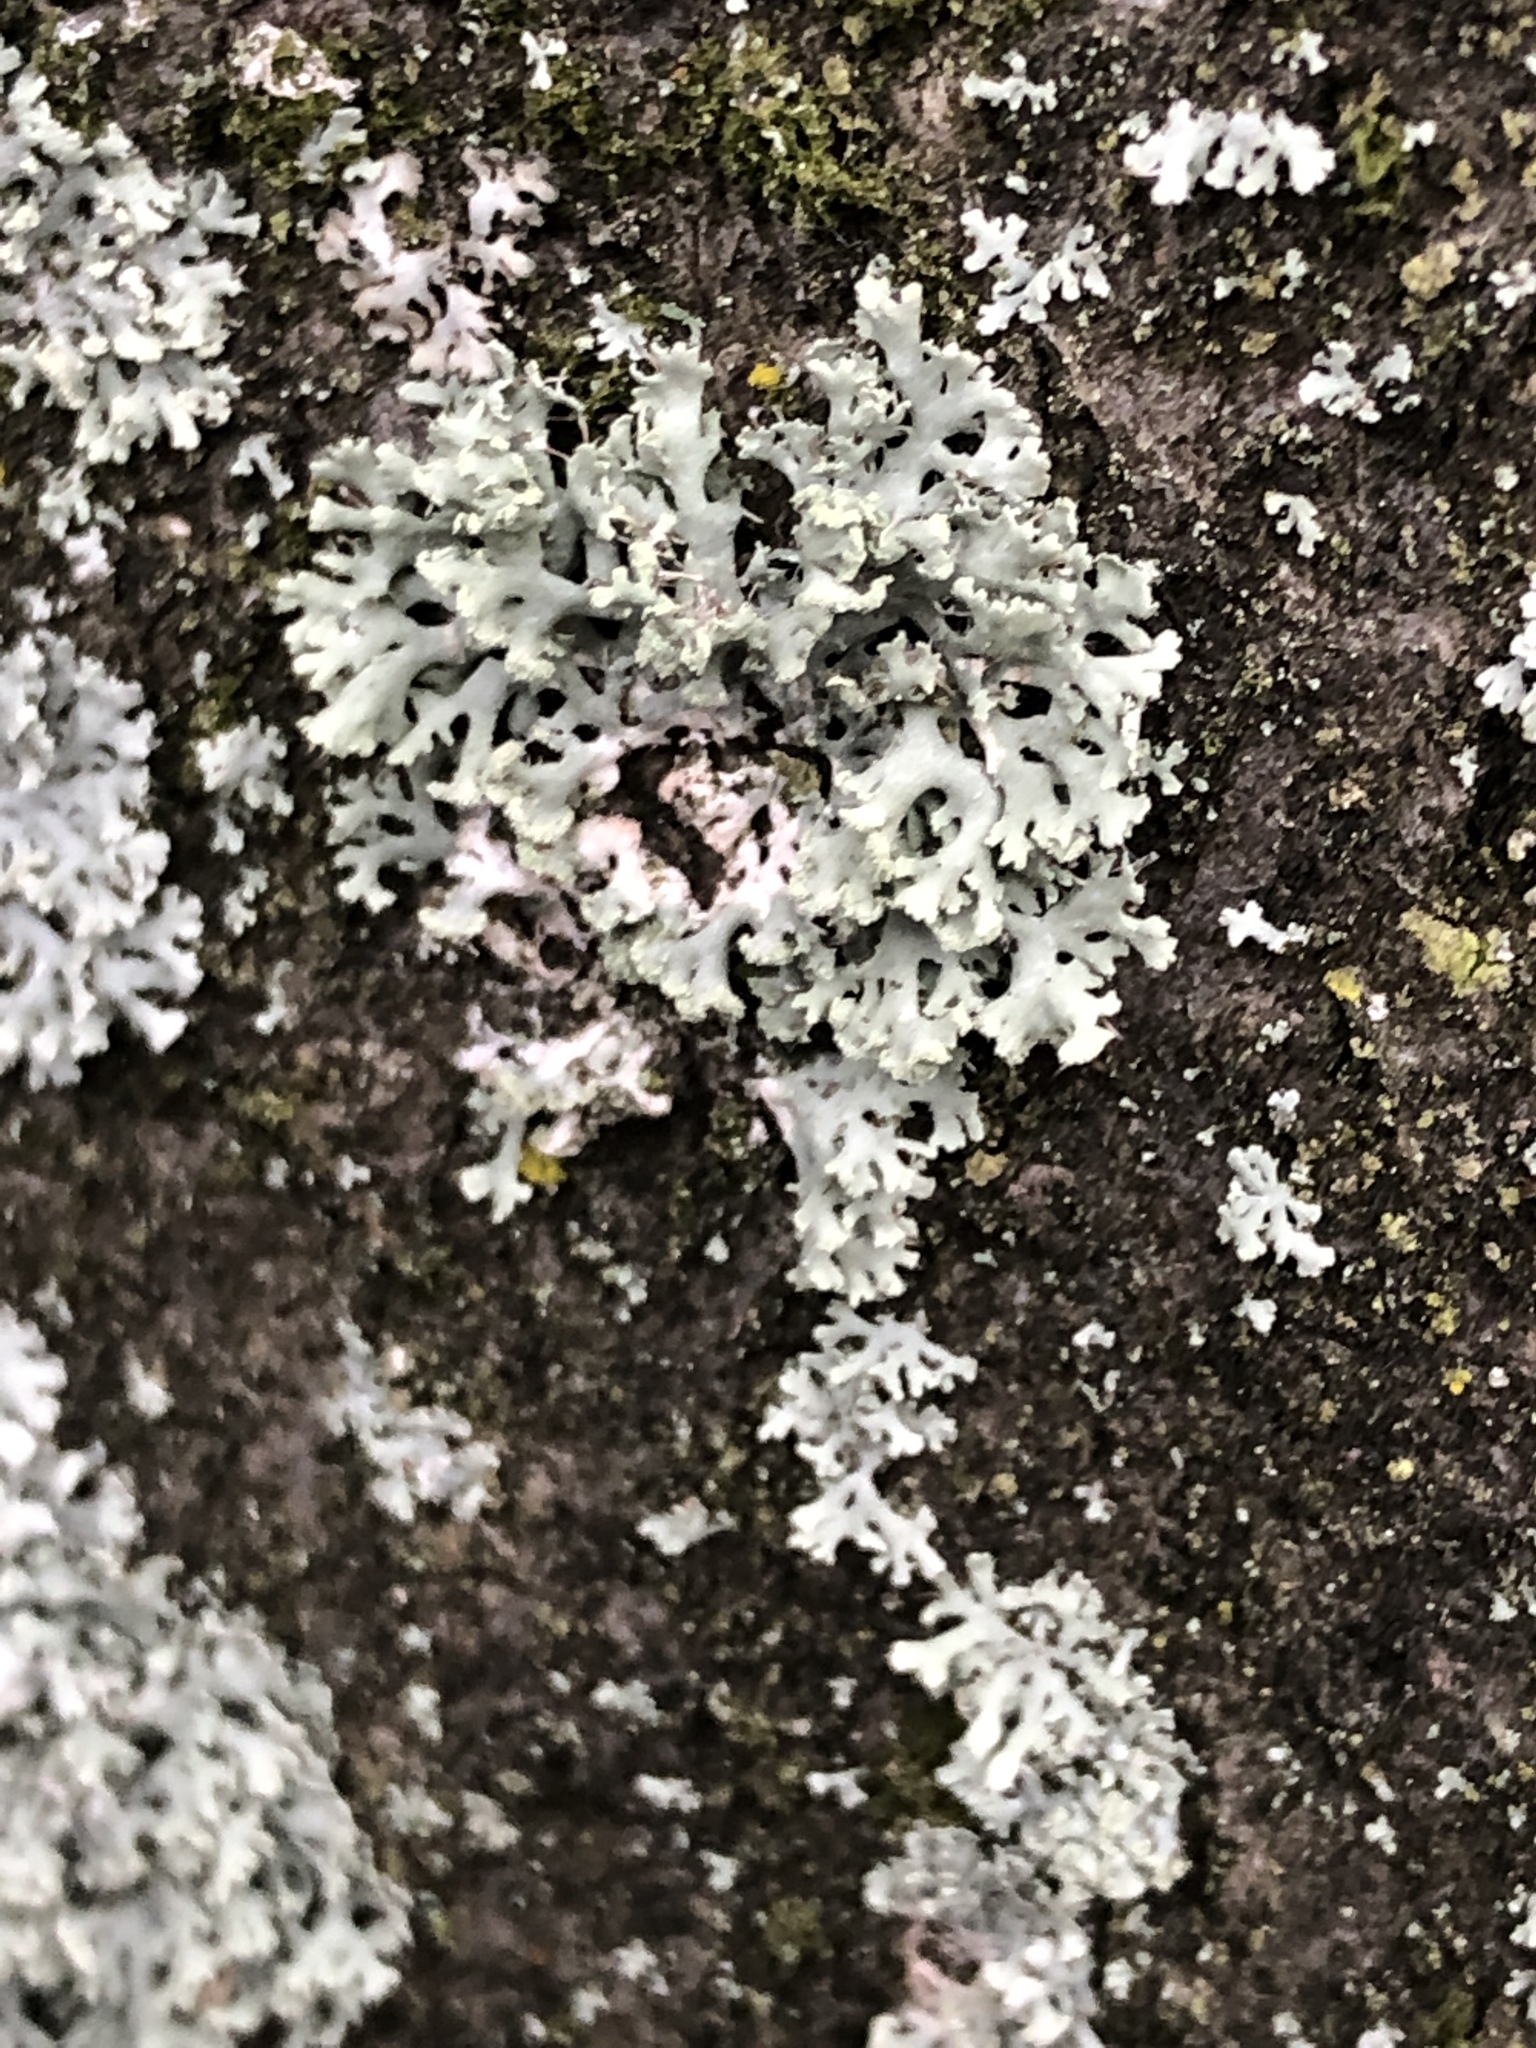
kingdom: Fungi
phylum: Ascomycota
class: Lecanoromycetes
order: Caliciales
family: Physciaceae
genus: Physcia
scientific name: Physcia tenella
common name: Fringed rosette lichen
